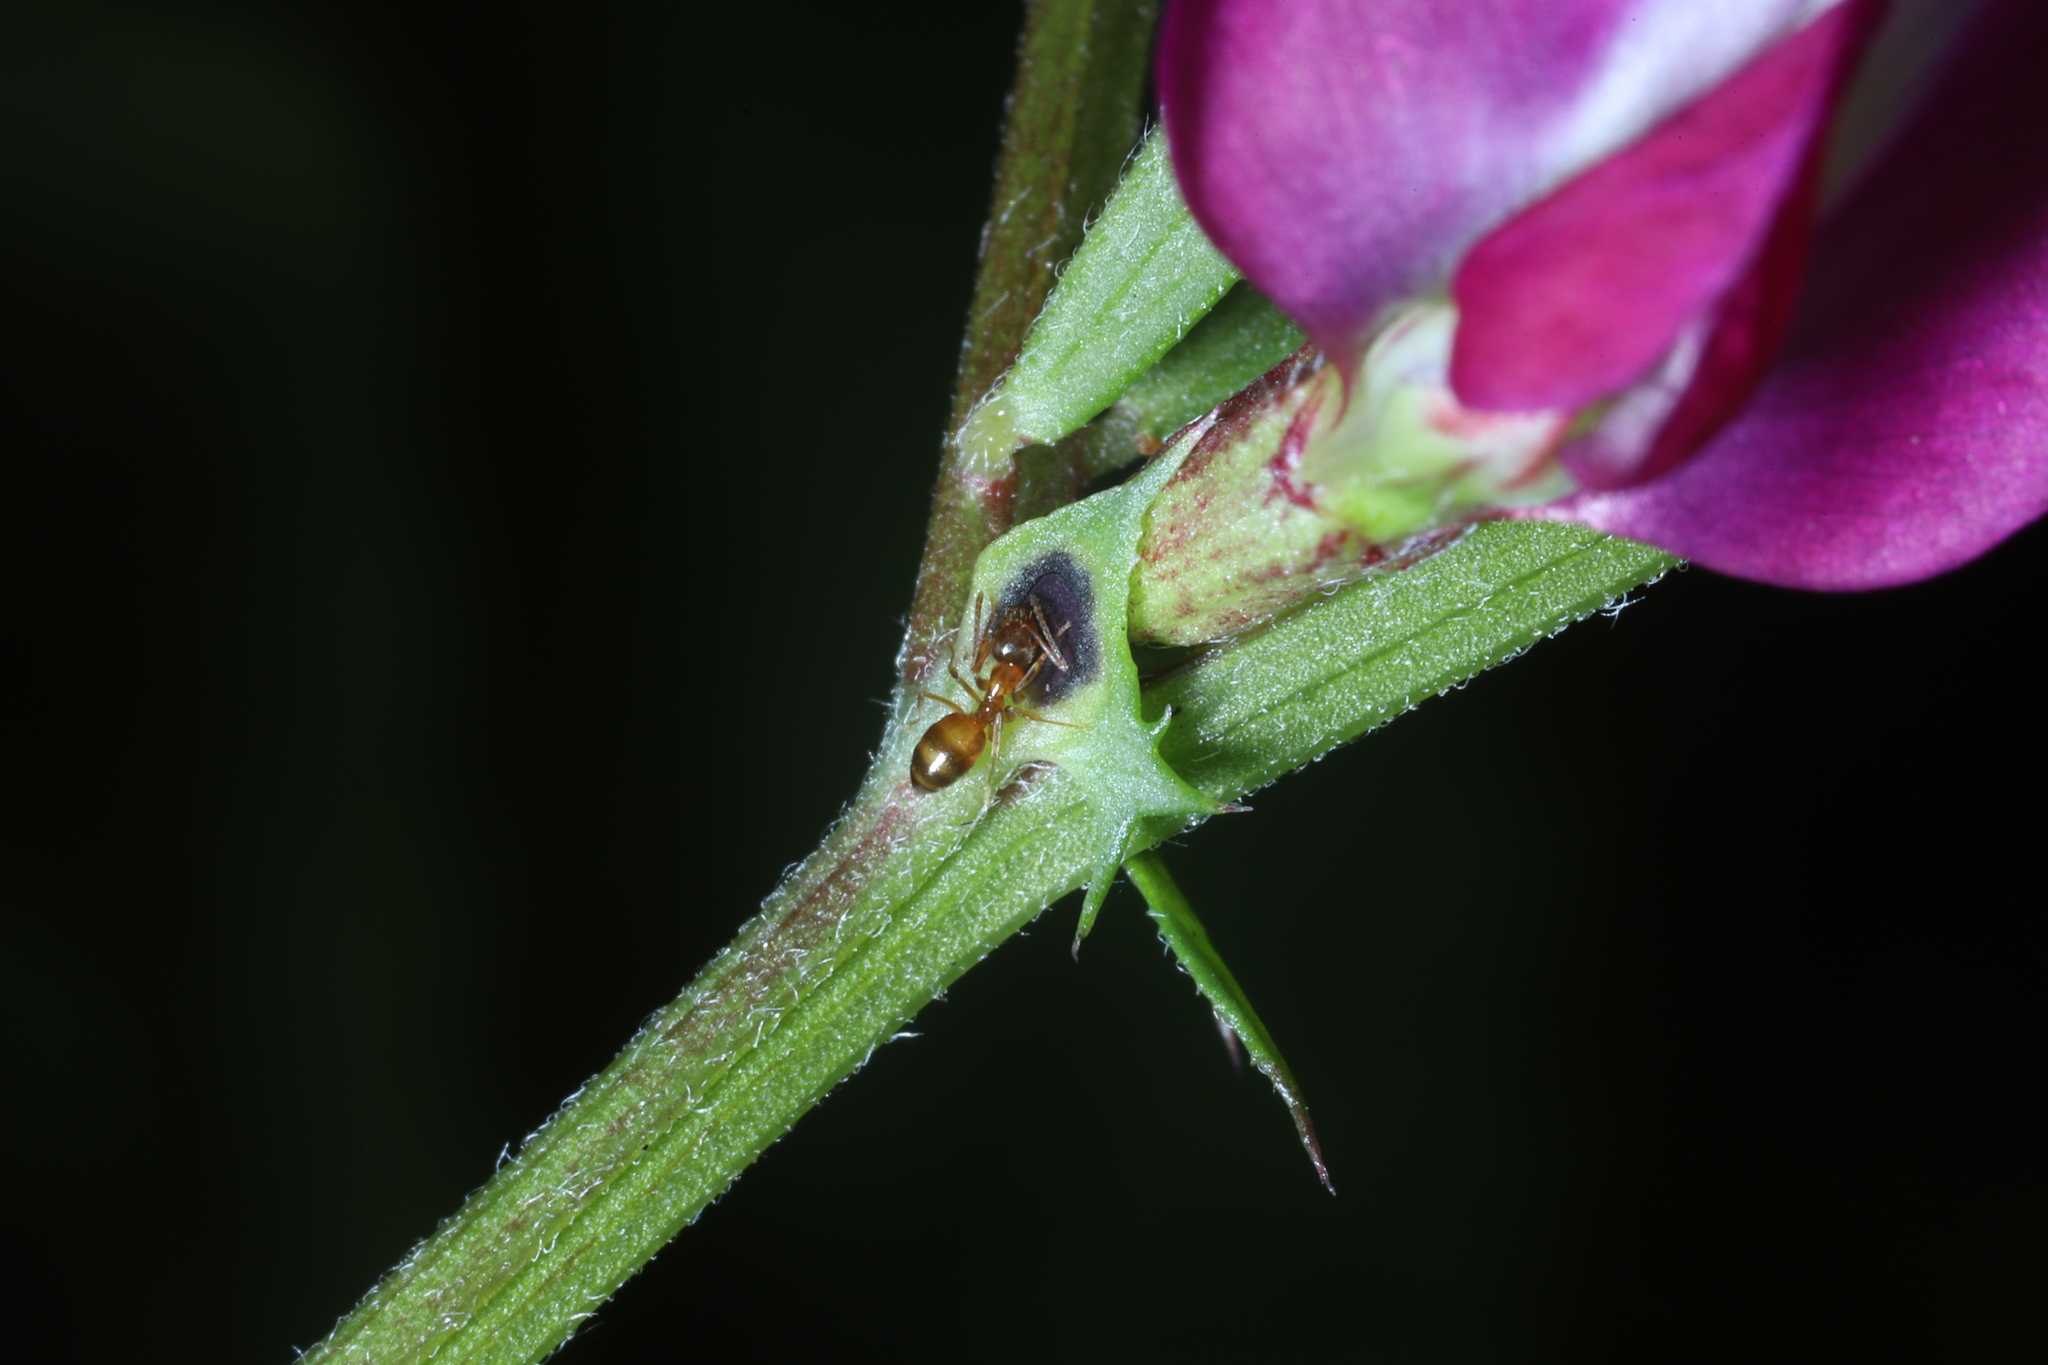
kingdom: Animalia
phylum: Arthropoda
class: Insecta
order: Hymenoptera
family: Formicidae
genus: Paratrechina
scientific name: Paratrechina flavipes
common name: Eastern asian formicine ant
